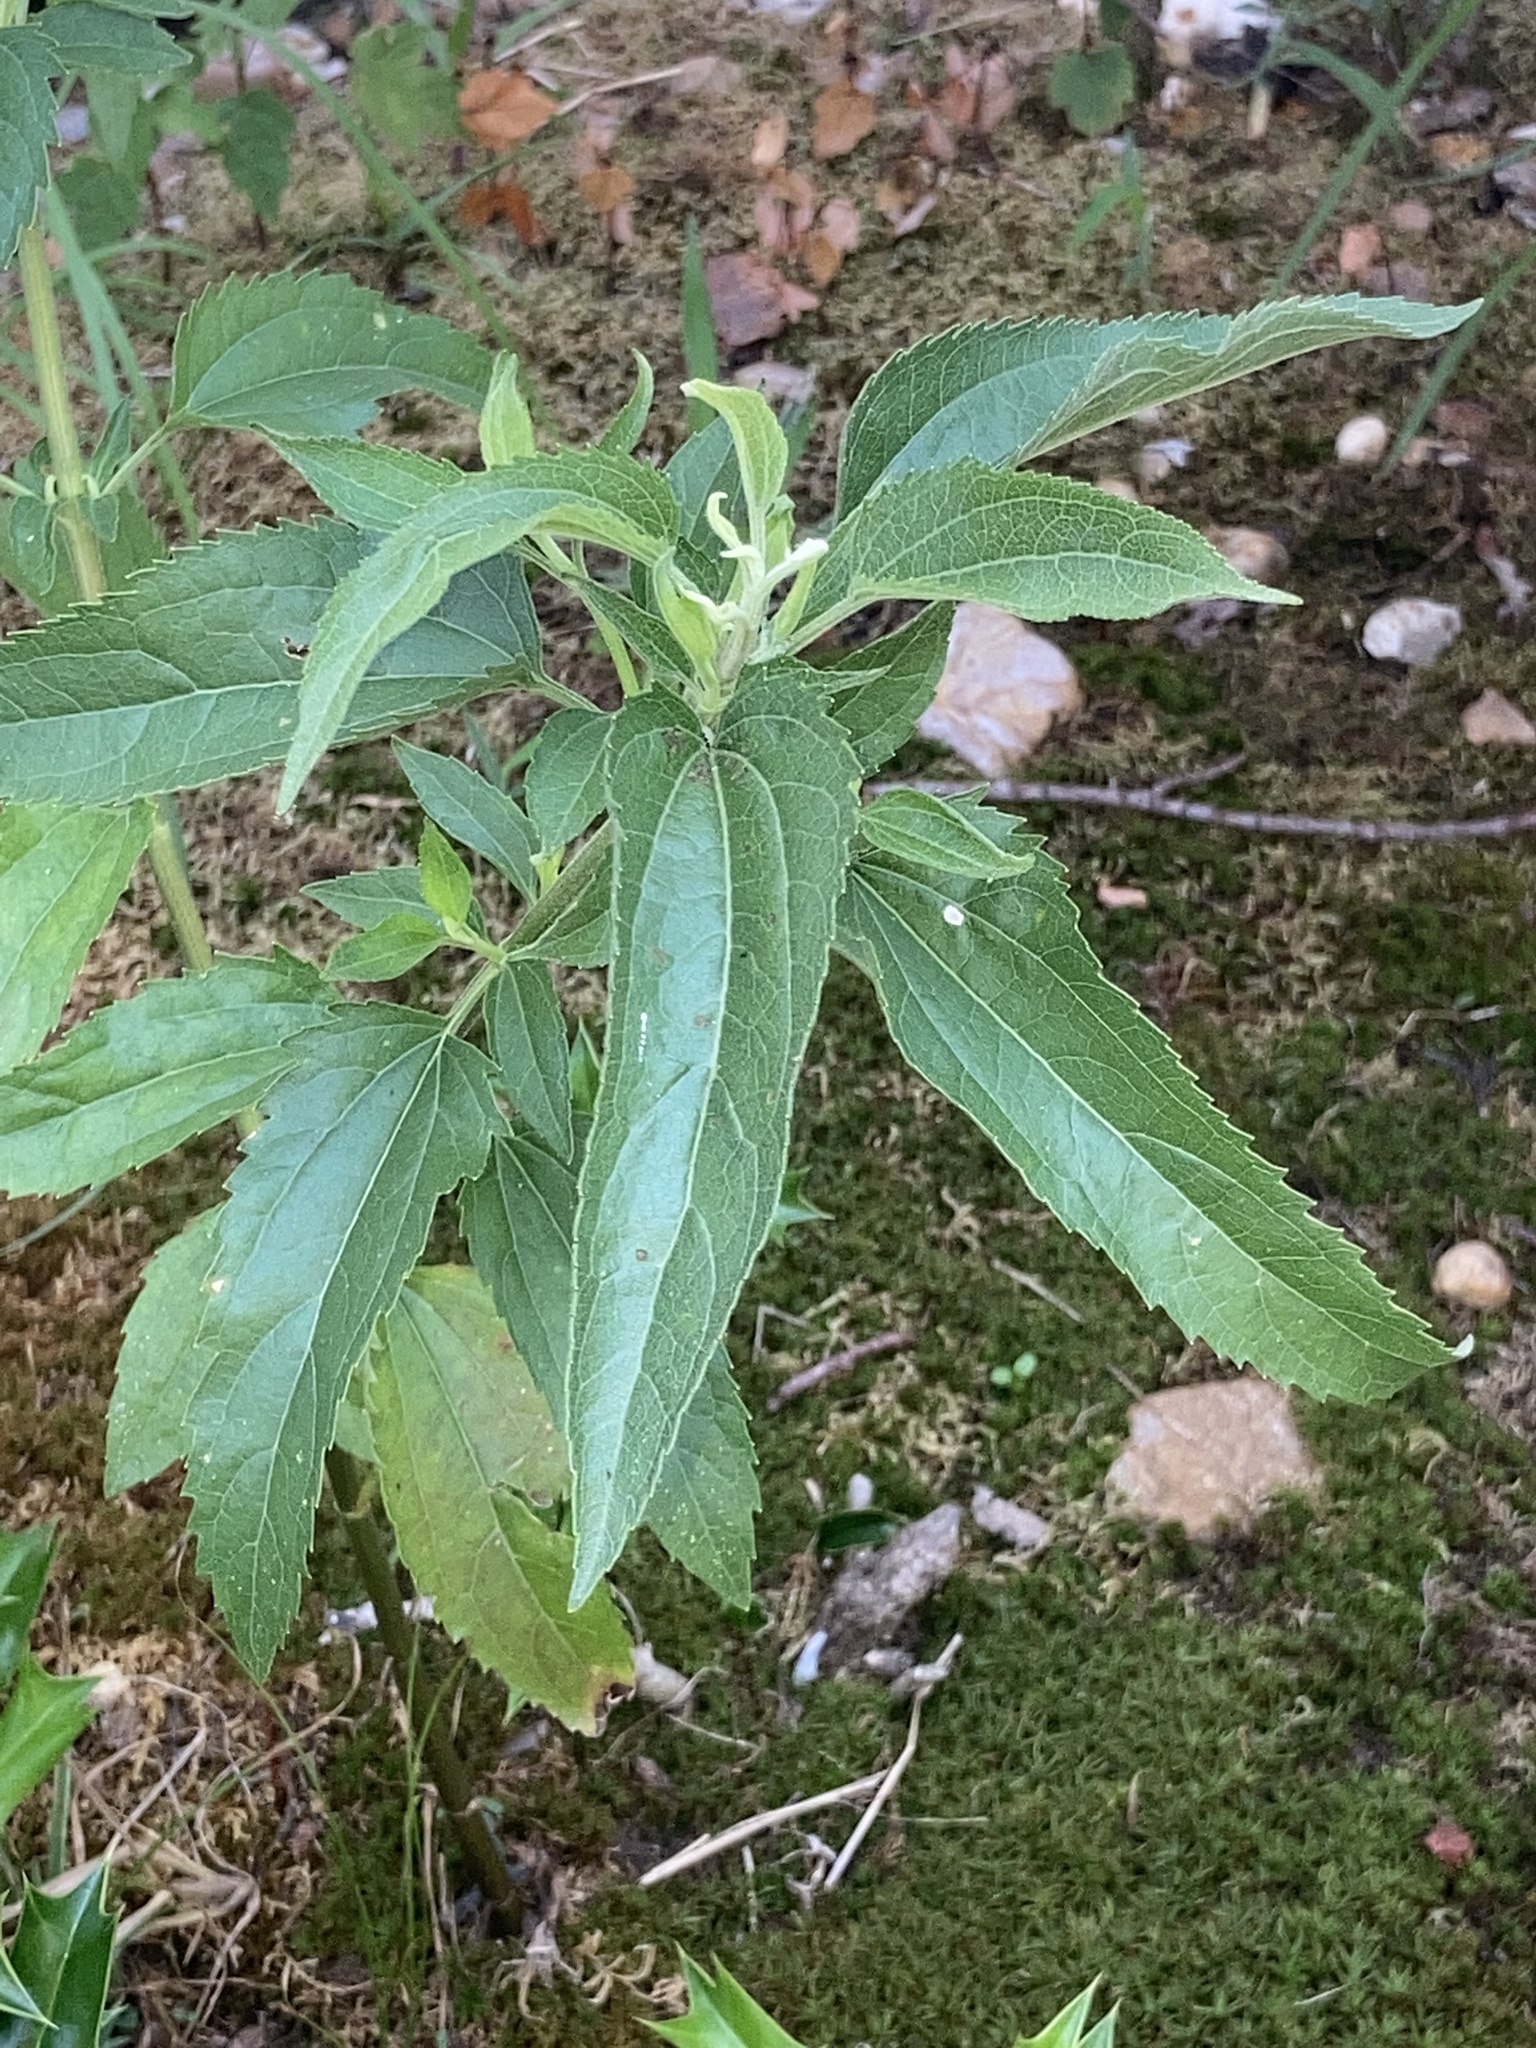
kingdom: Plantae
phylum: Tracheophyta
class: Magnoliopsida
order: Asterales
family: Asteraceae
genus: Eupatorium
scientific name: Eupatorium serotinum
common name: Late boneset
